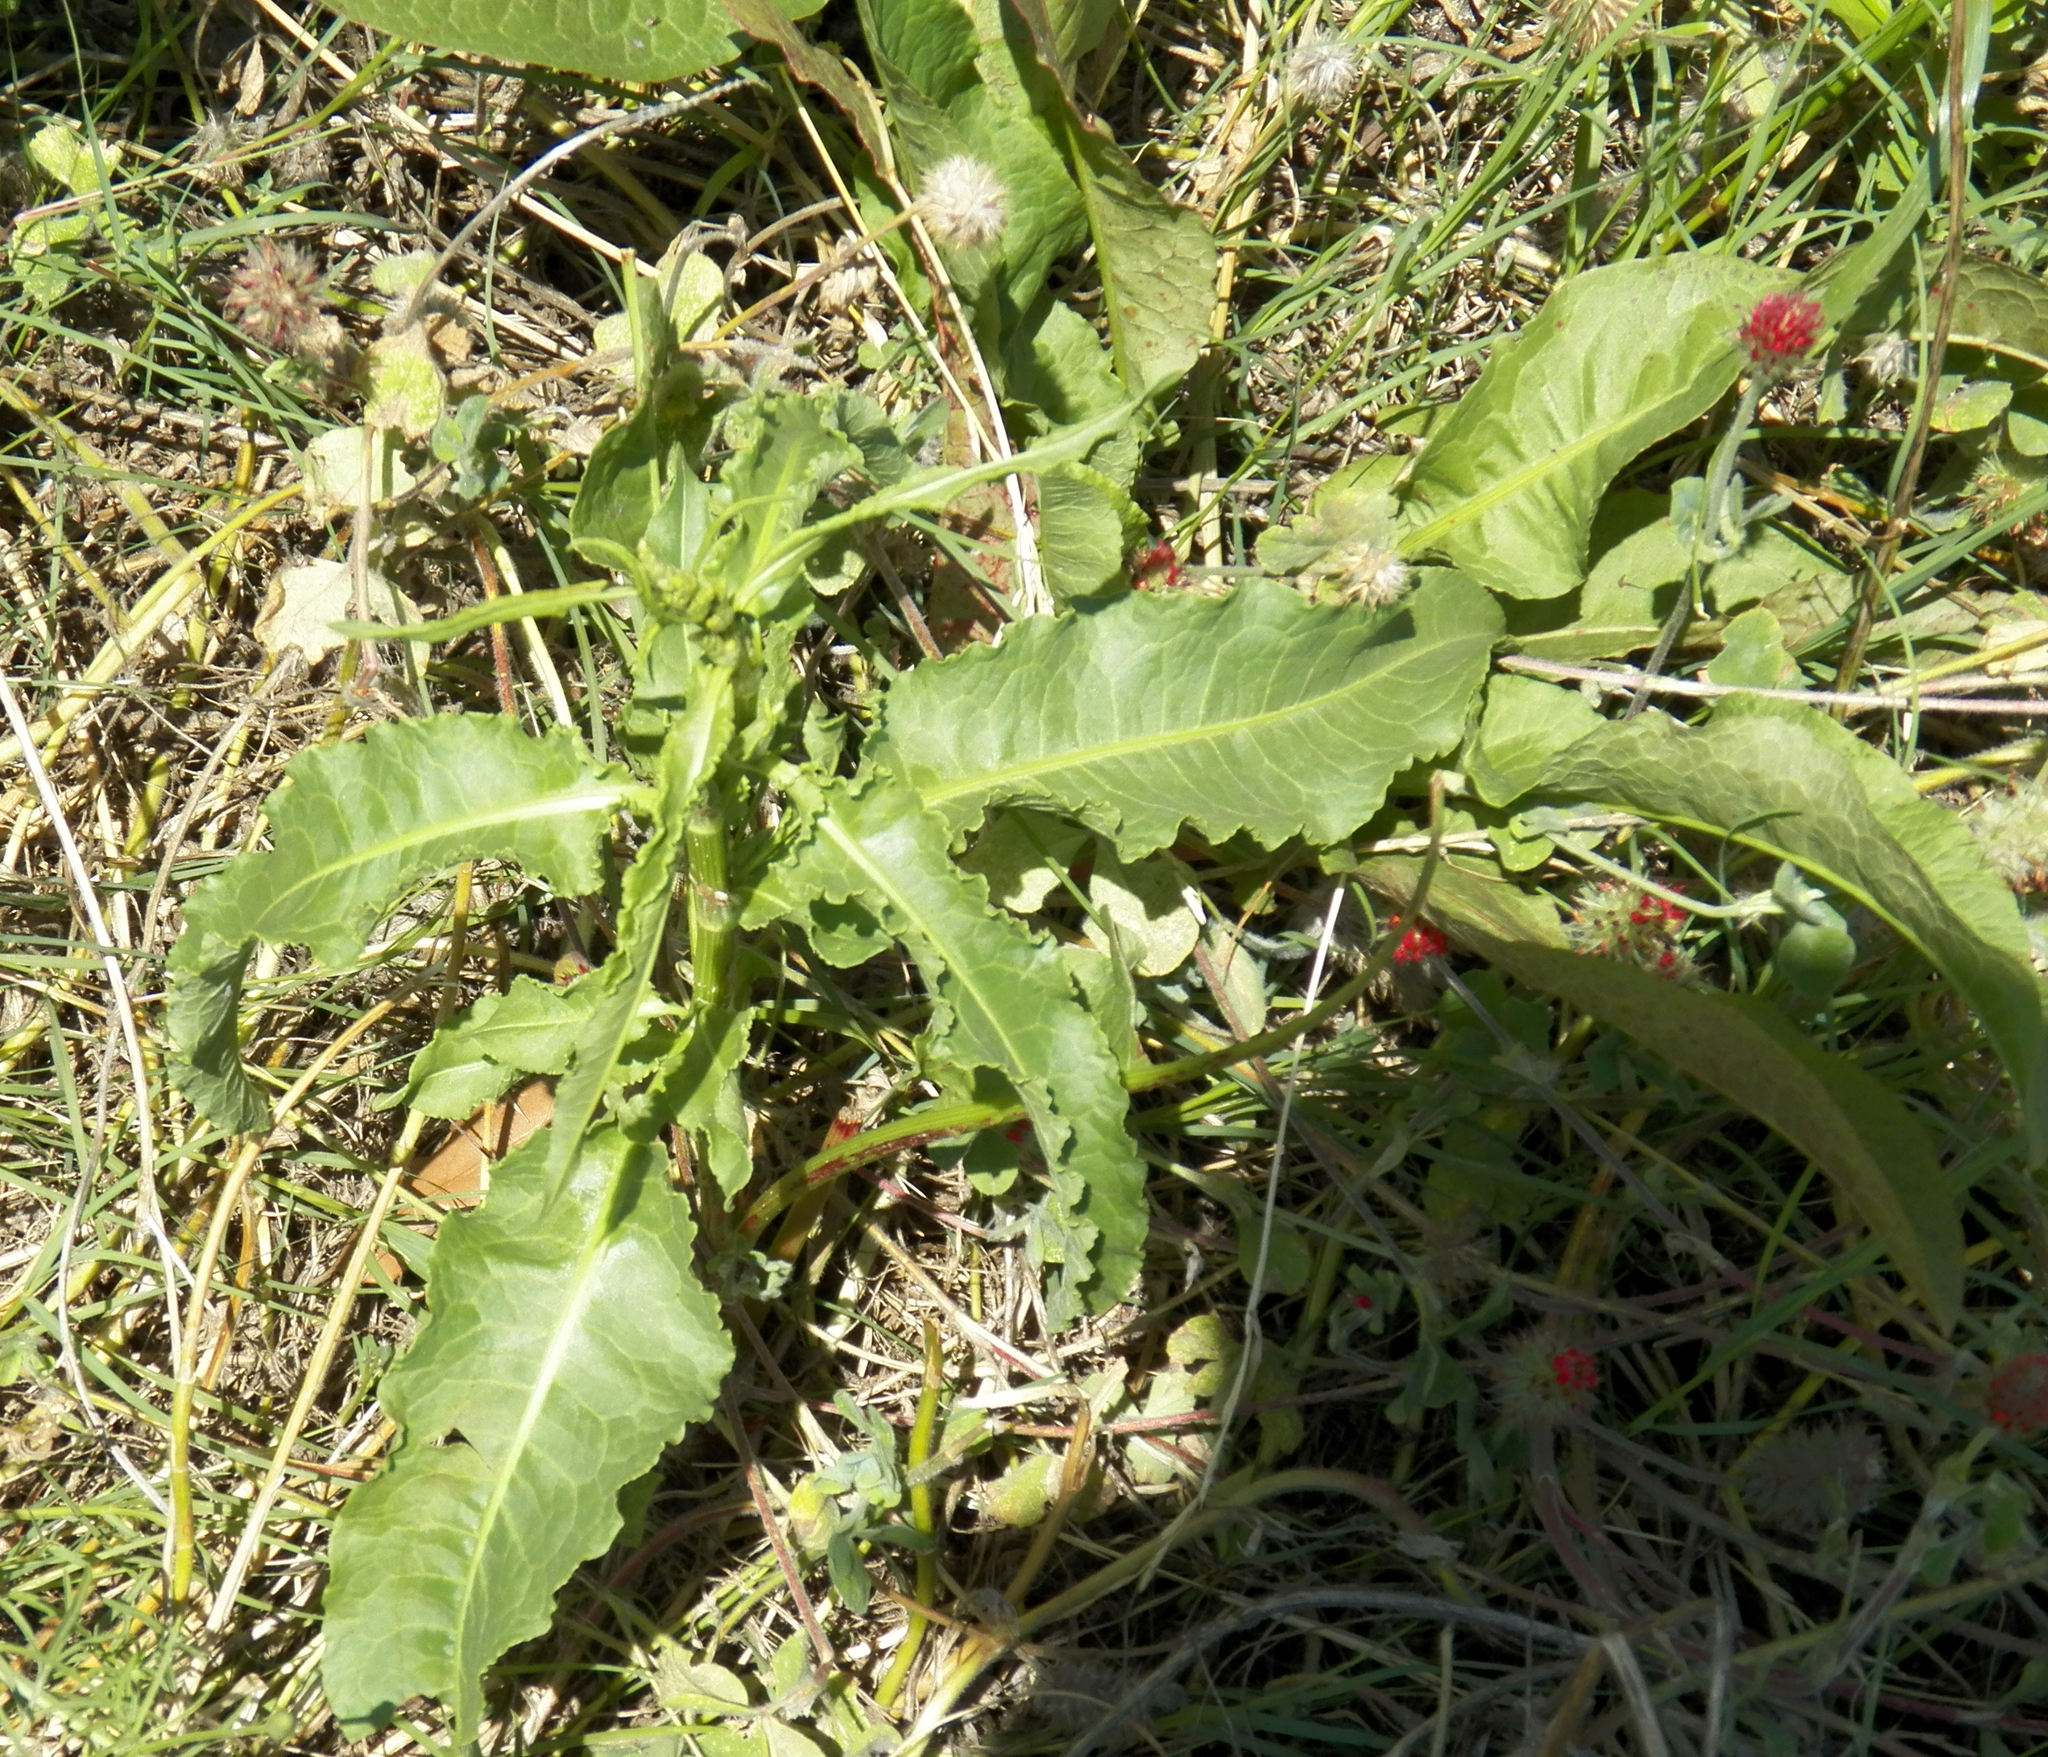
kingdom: Plantae
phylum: Tracheophyta
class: Magnoliopsida
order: Caryophyllales
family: Polygonaceae
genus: Rumex
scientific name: Rumex crispus
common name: Curled dock
